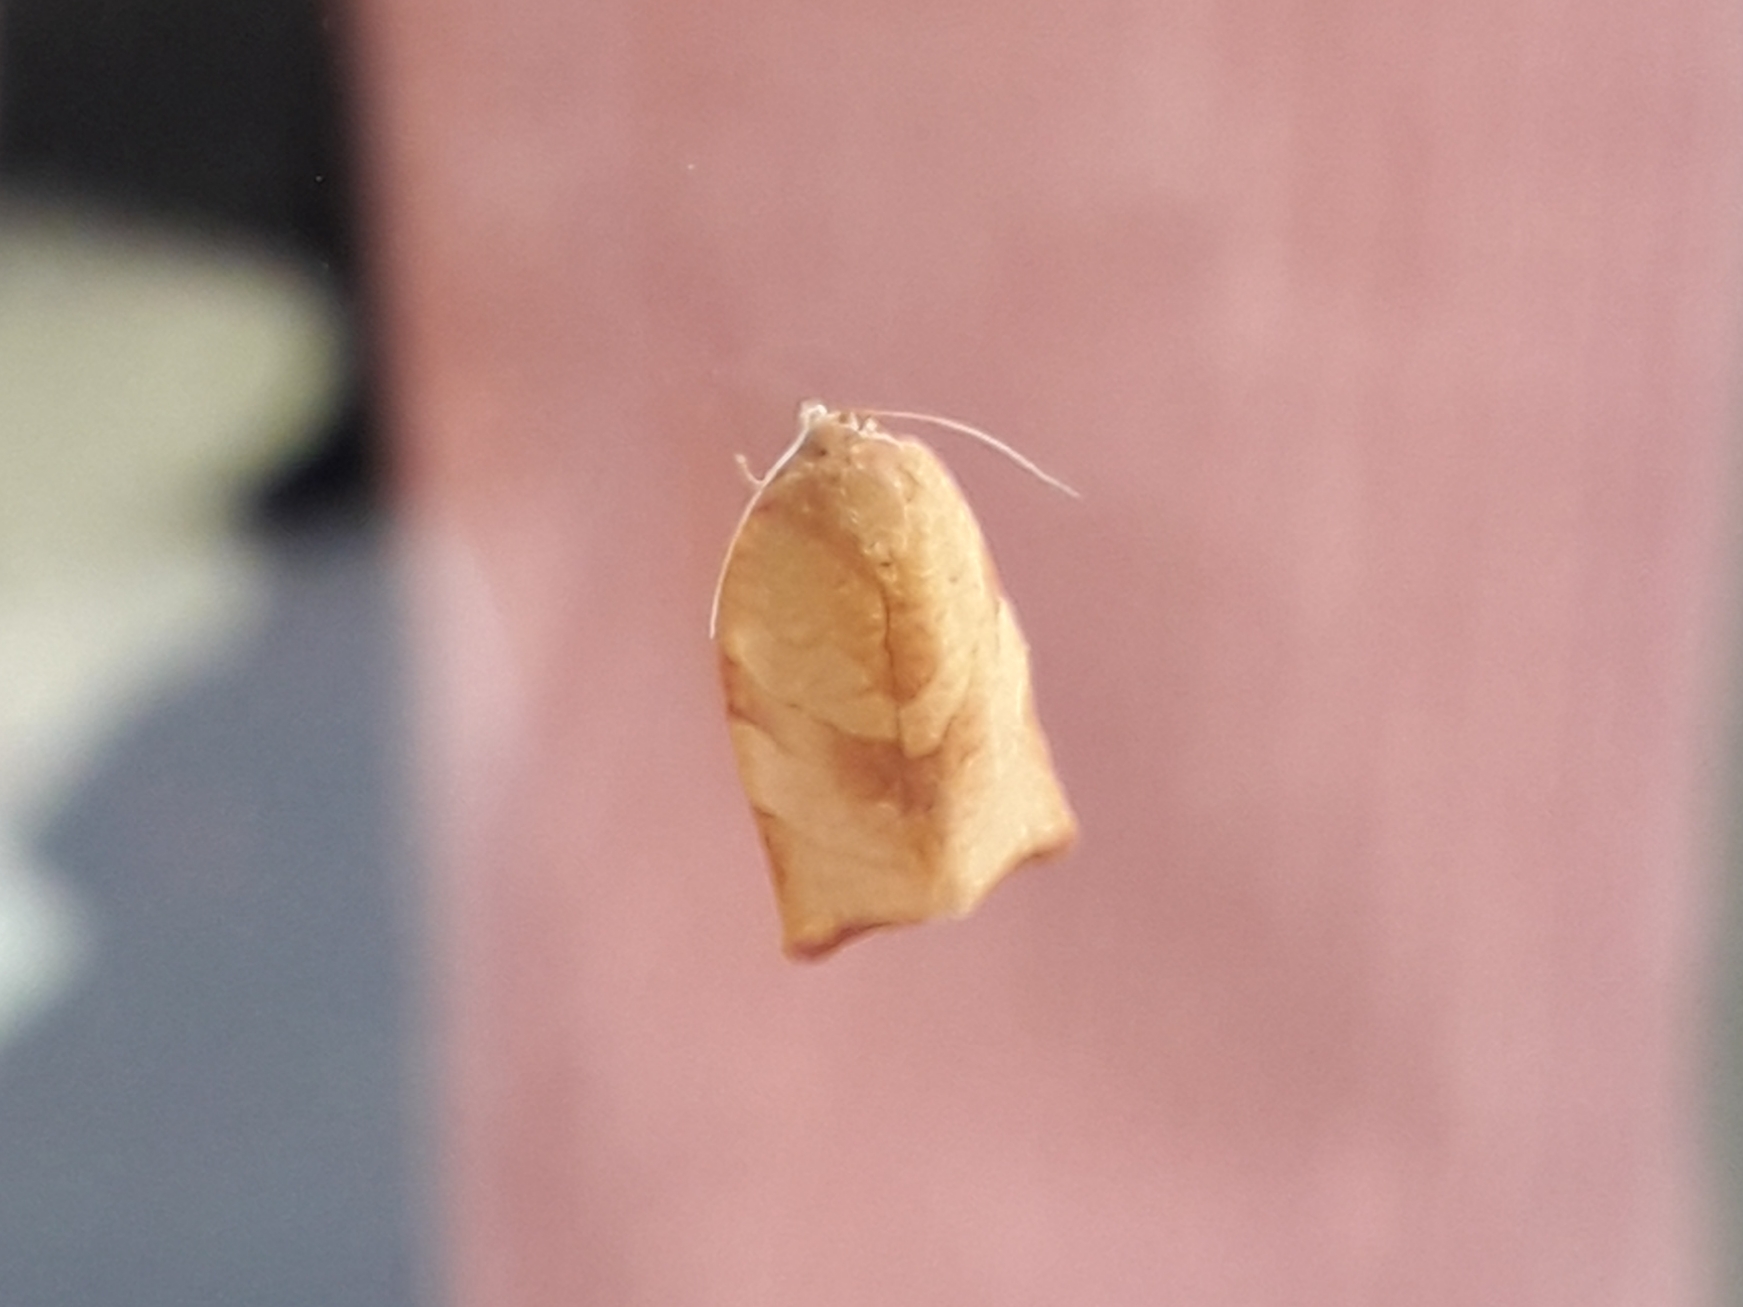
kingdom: Animalia
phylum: Arthropoda
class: Insecta
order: Lepidoptera
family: Tortricidae
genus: Cacoecimorpha
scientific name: Cacoecimorpha pronubana
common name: Carnation tortrix
